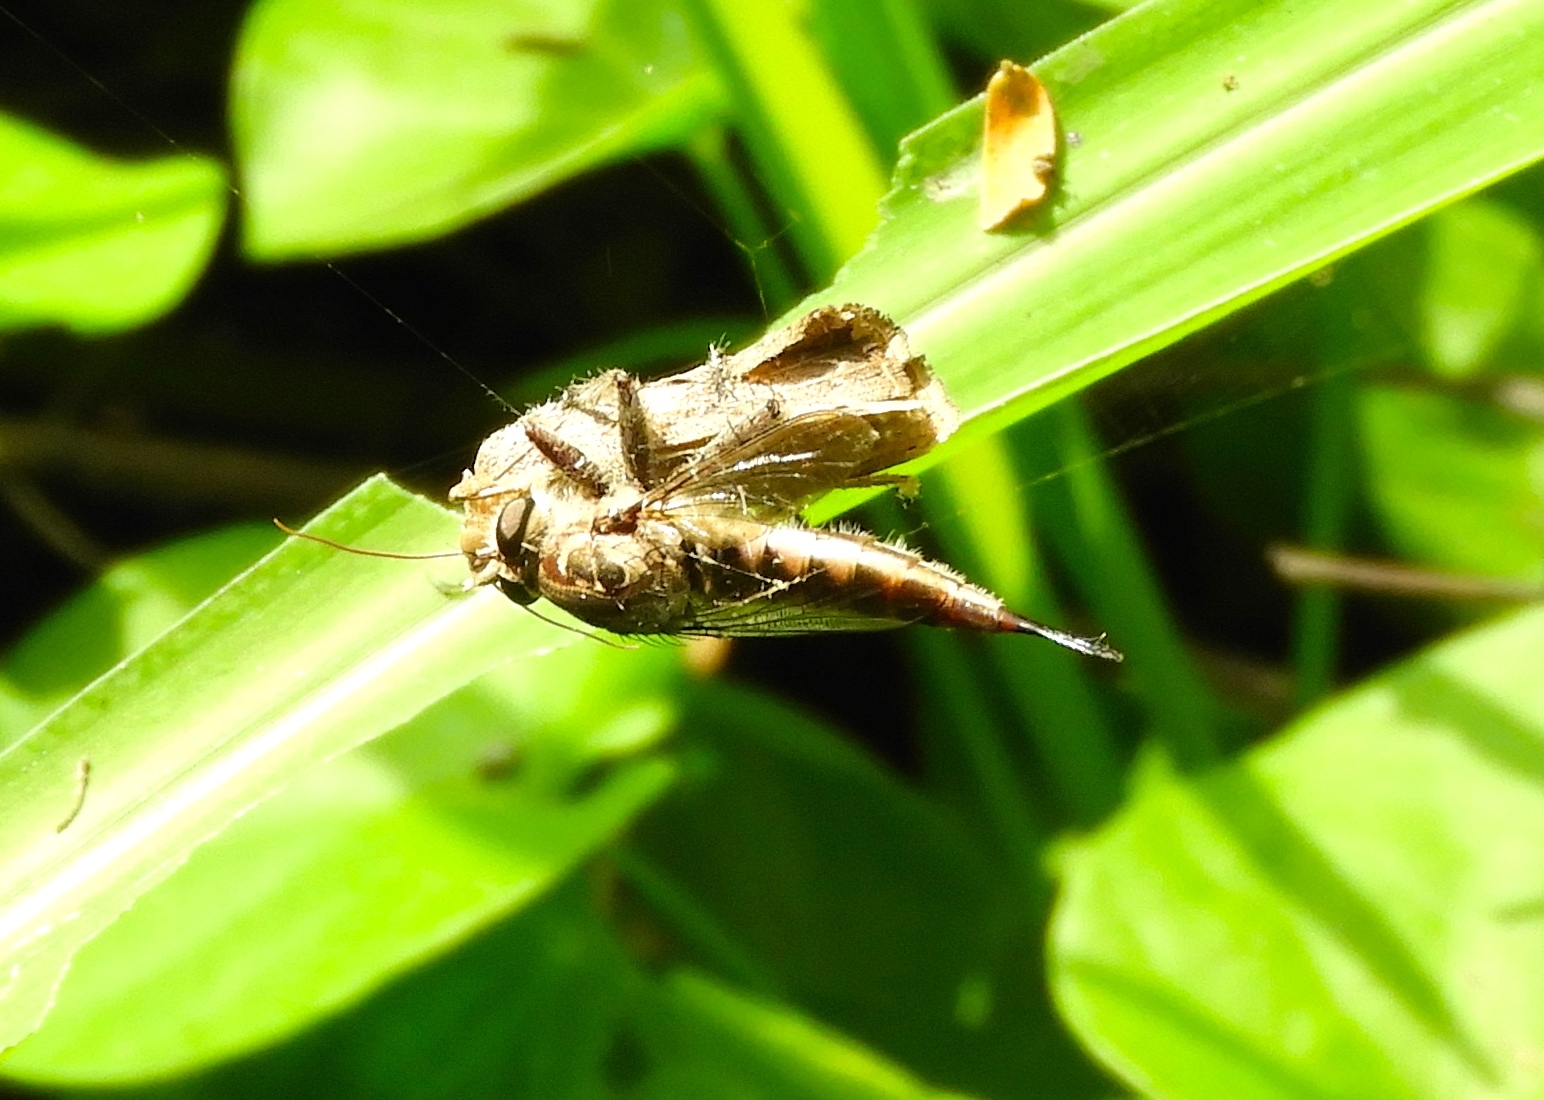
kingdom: Animalia
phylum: Arthropoda
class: Insecta
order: Lepidoptera
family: Erebidae
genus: Isogona
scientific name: Isogona scindens
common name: Owlet moth
